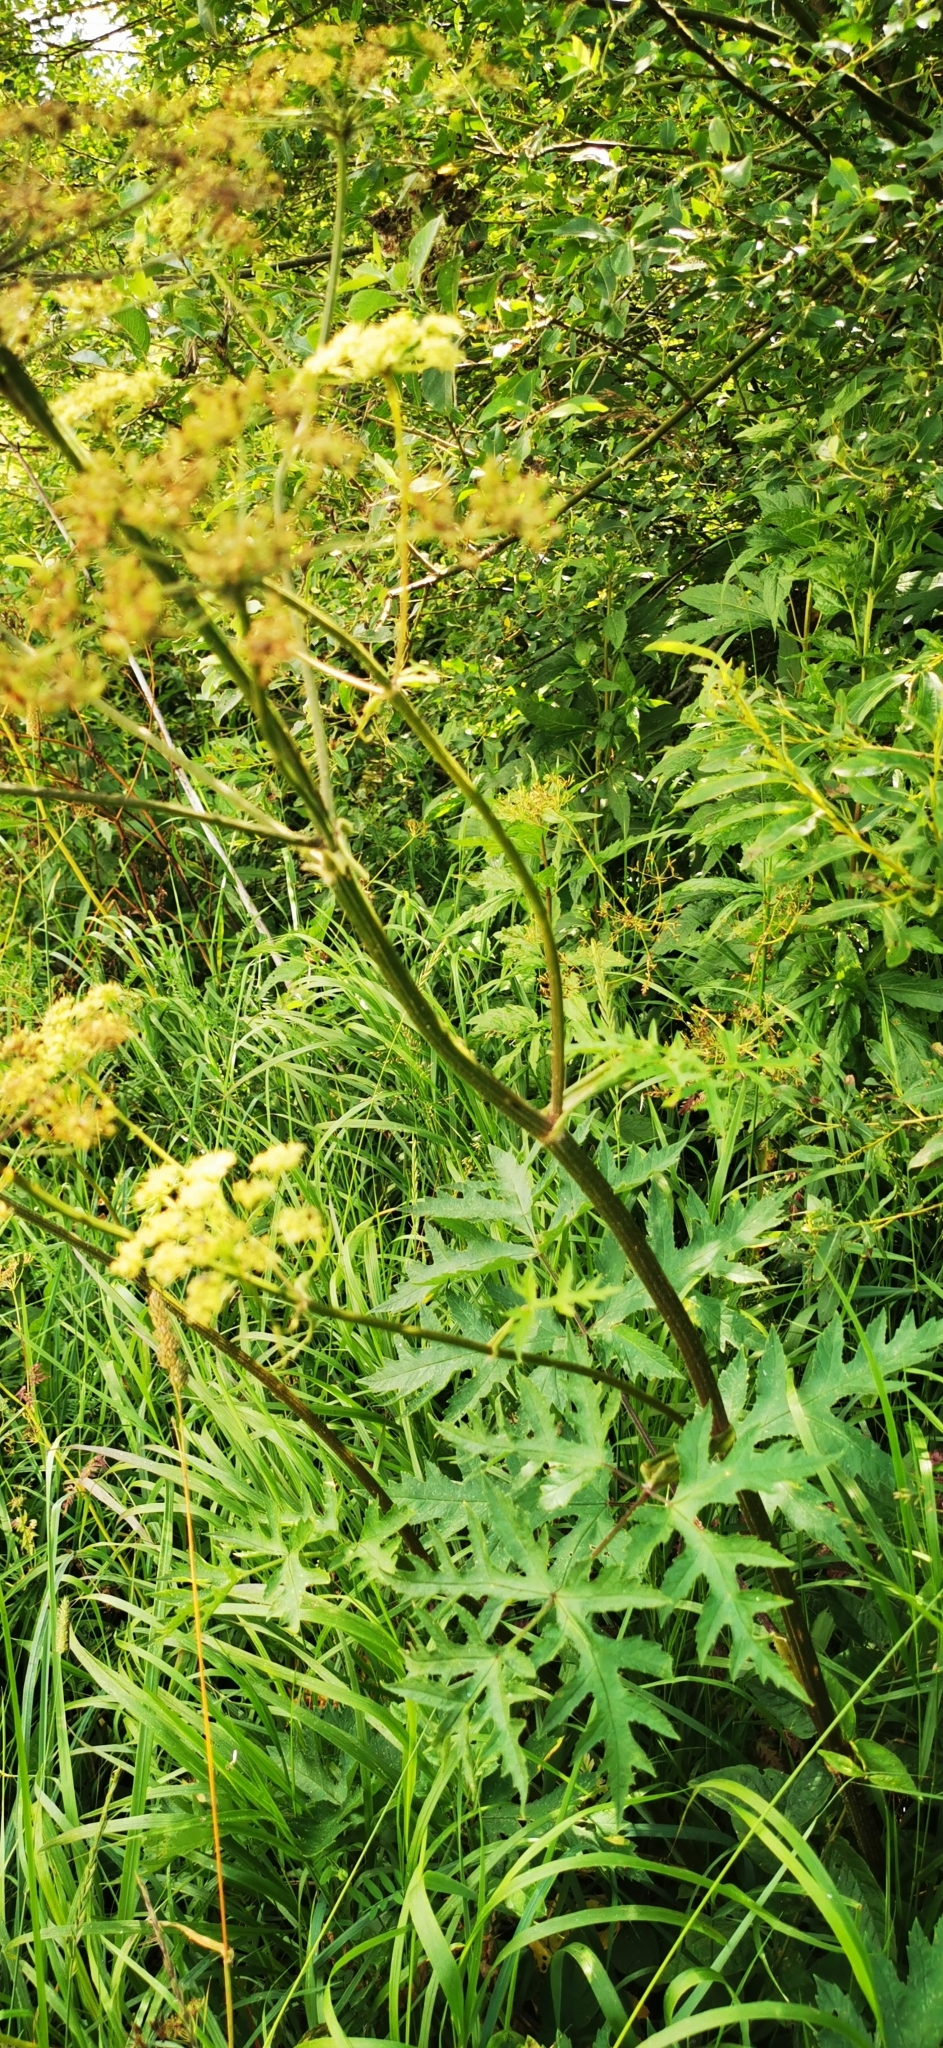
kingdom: Plantae
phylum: Tracheophyta
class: Magnoliopsida
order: Apiales
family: Apiaceae
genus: Heracleum
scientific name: Heracleum sphondylium
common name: Hogweed
